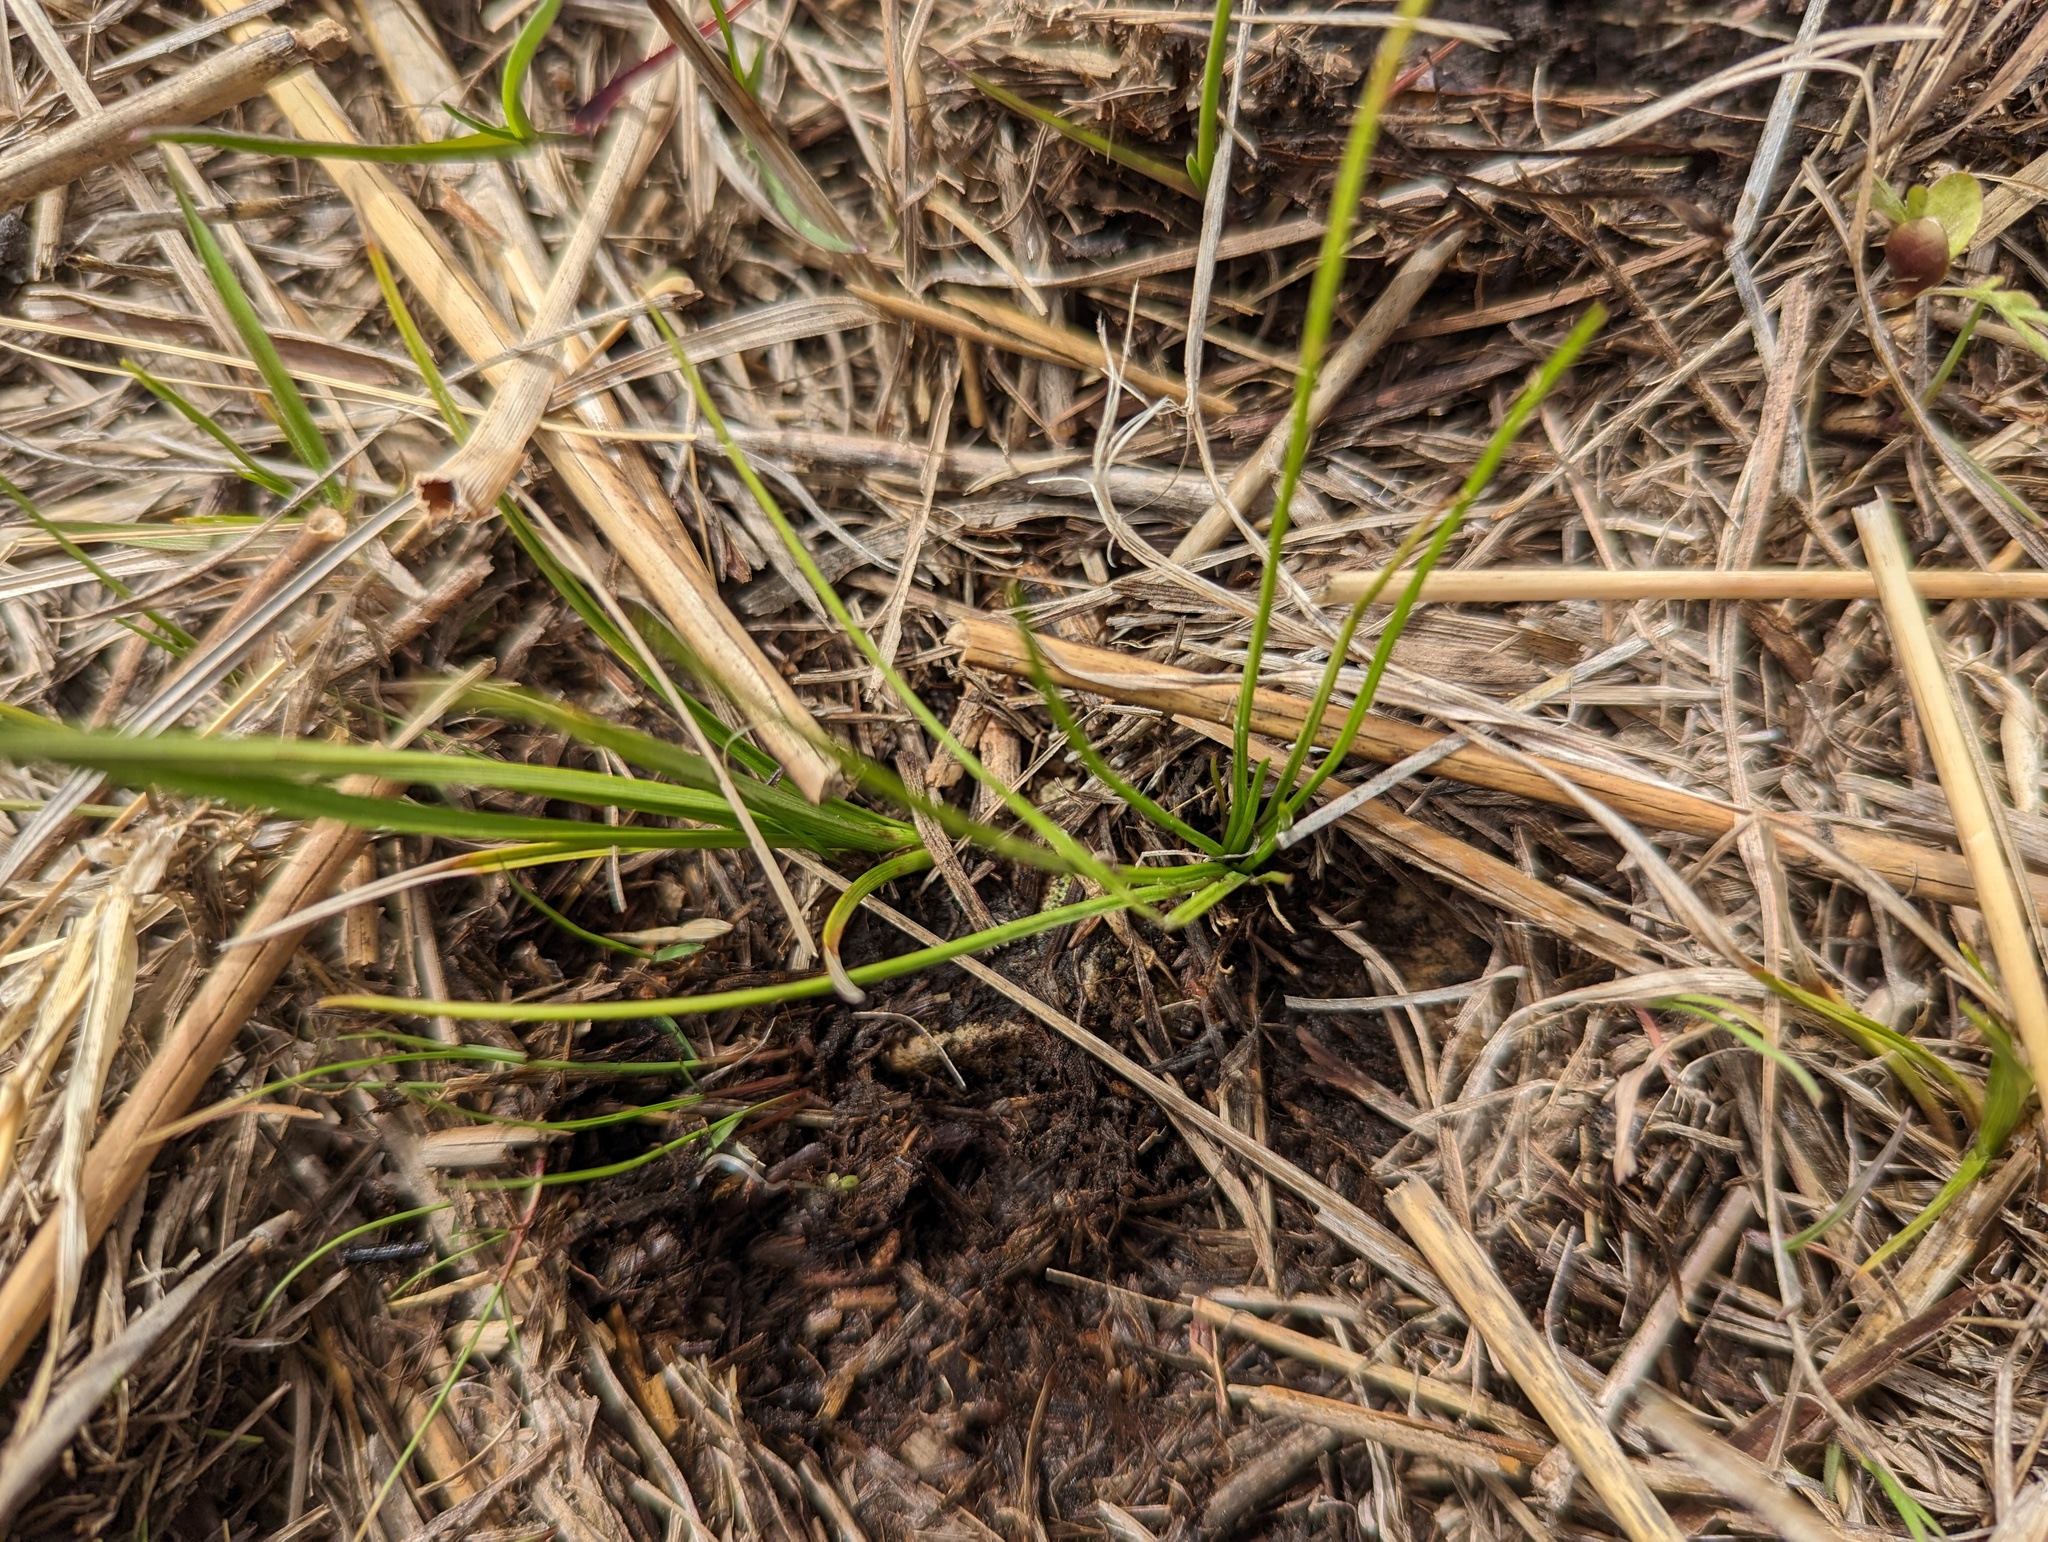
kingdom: Plantae
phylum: Tracheophyta
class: Lycopodiopsida
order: Isoetales
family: Isoetaceae
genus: Isoetes
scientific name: Isoetes butleri
